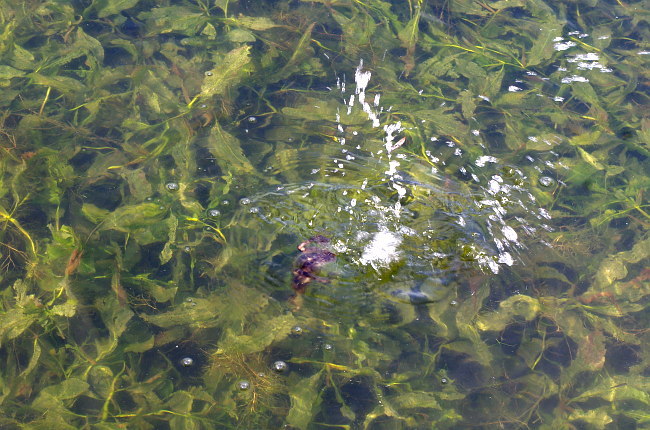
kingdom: Plantae
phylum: Tracheophyta
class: Liliopsida
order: Alismatales
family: Potamogetonaceae
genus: Potamogeton
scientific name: Potamogeton lucens
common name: Shining pondweed
